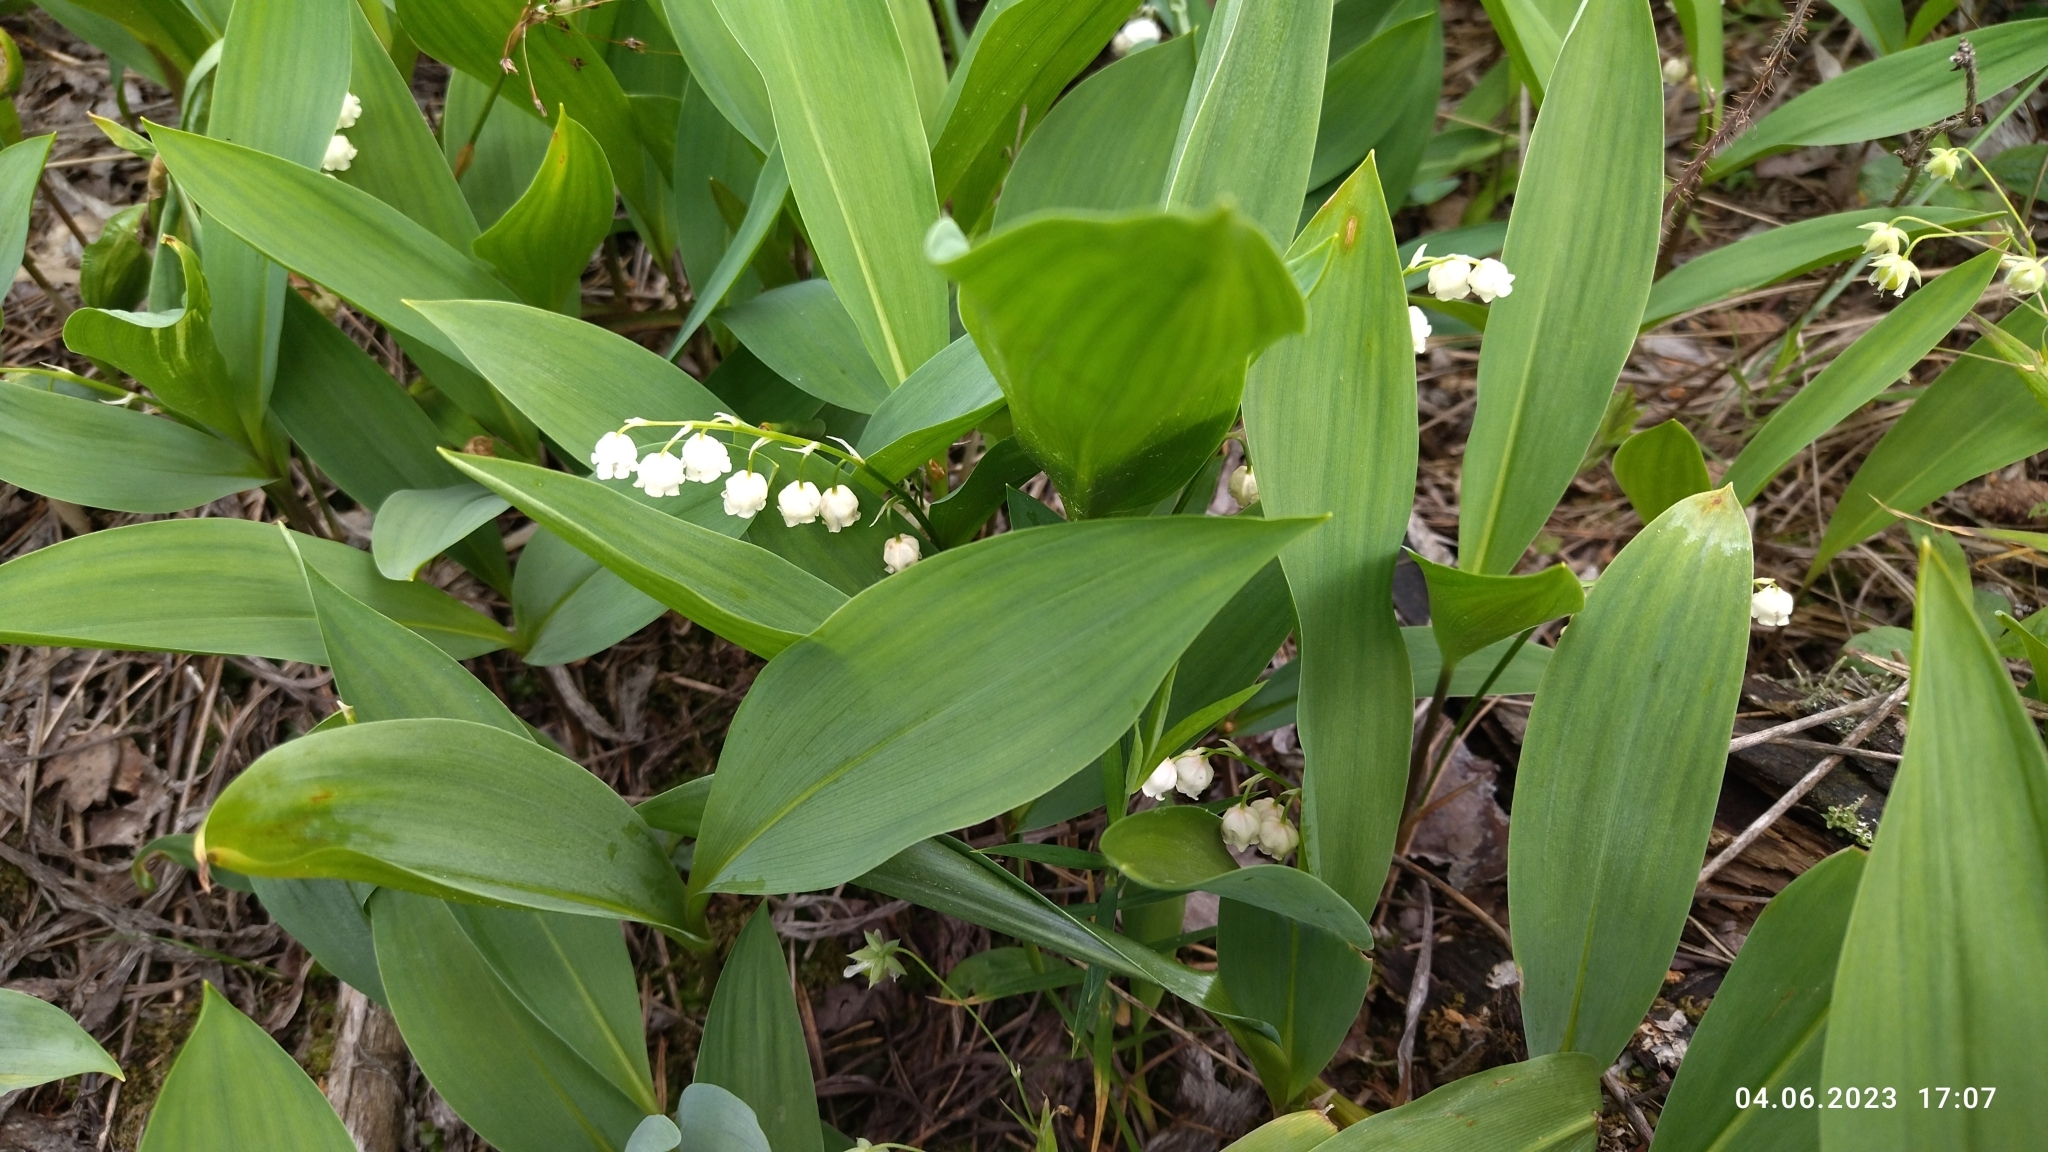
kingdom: Plantae
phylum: Tracheophyta
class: Liliopsida
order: Asparagales
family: Asparagaceae
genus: Convallaria
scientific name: Convallaria majalis
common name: Lily-of-the-valley
